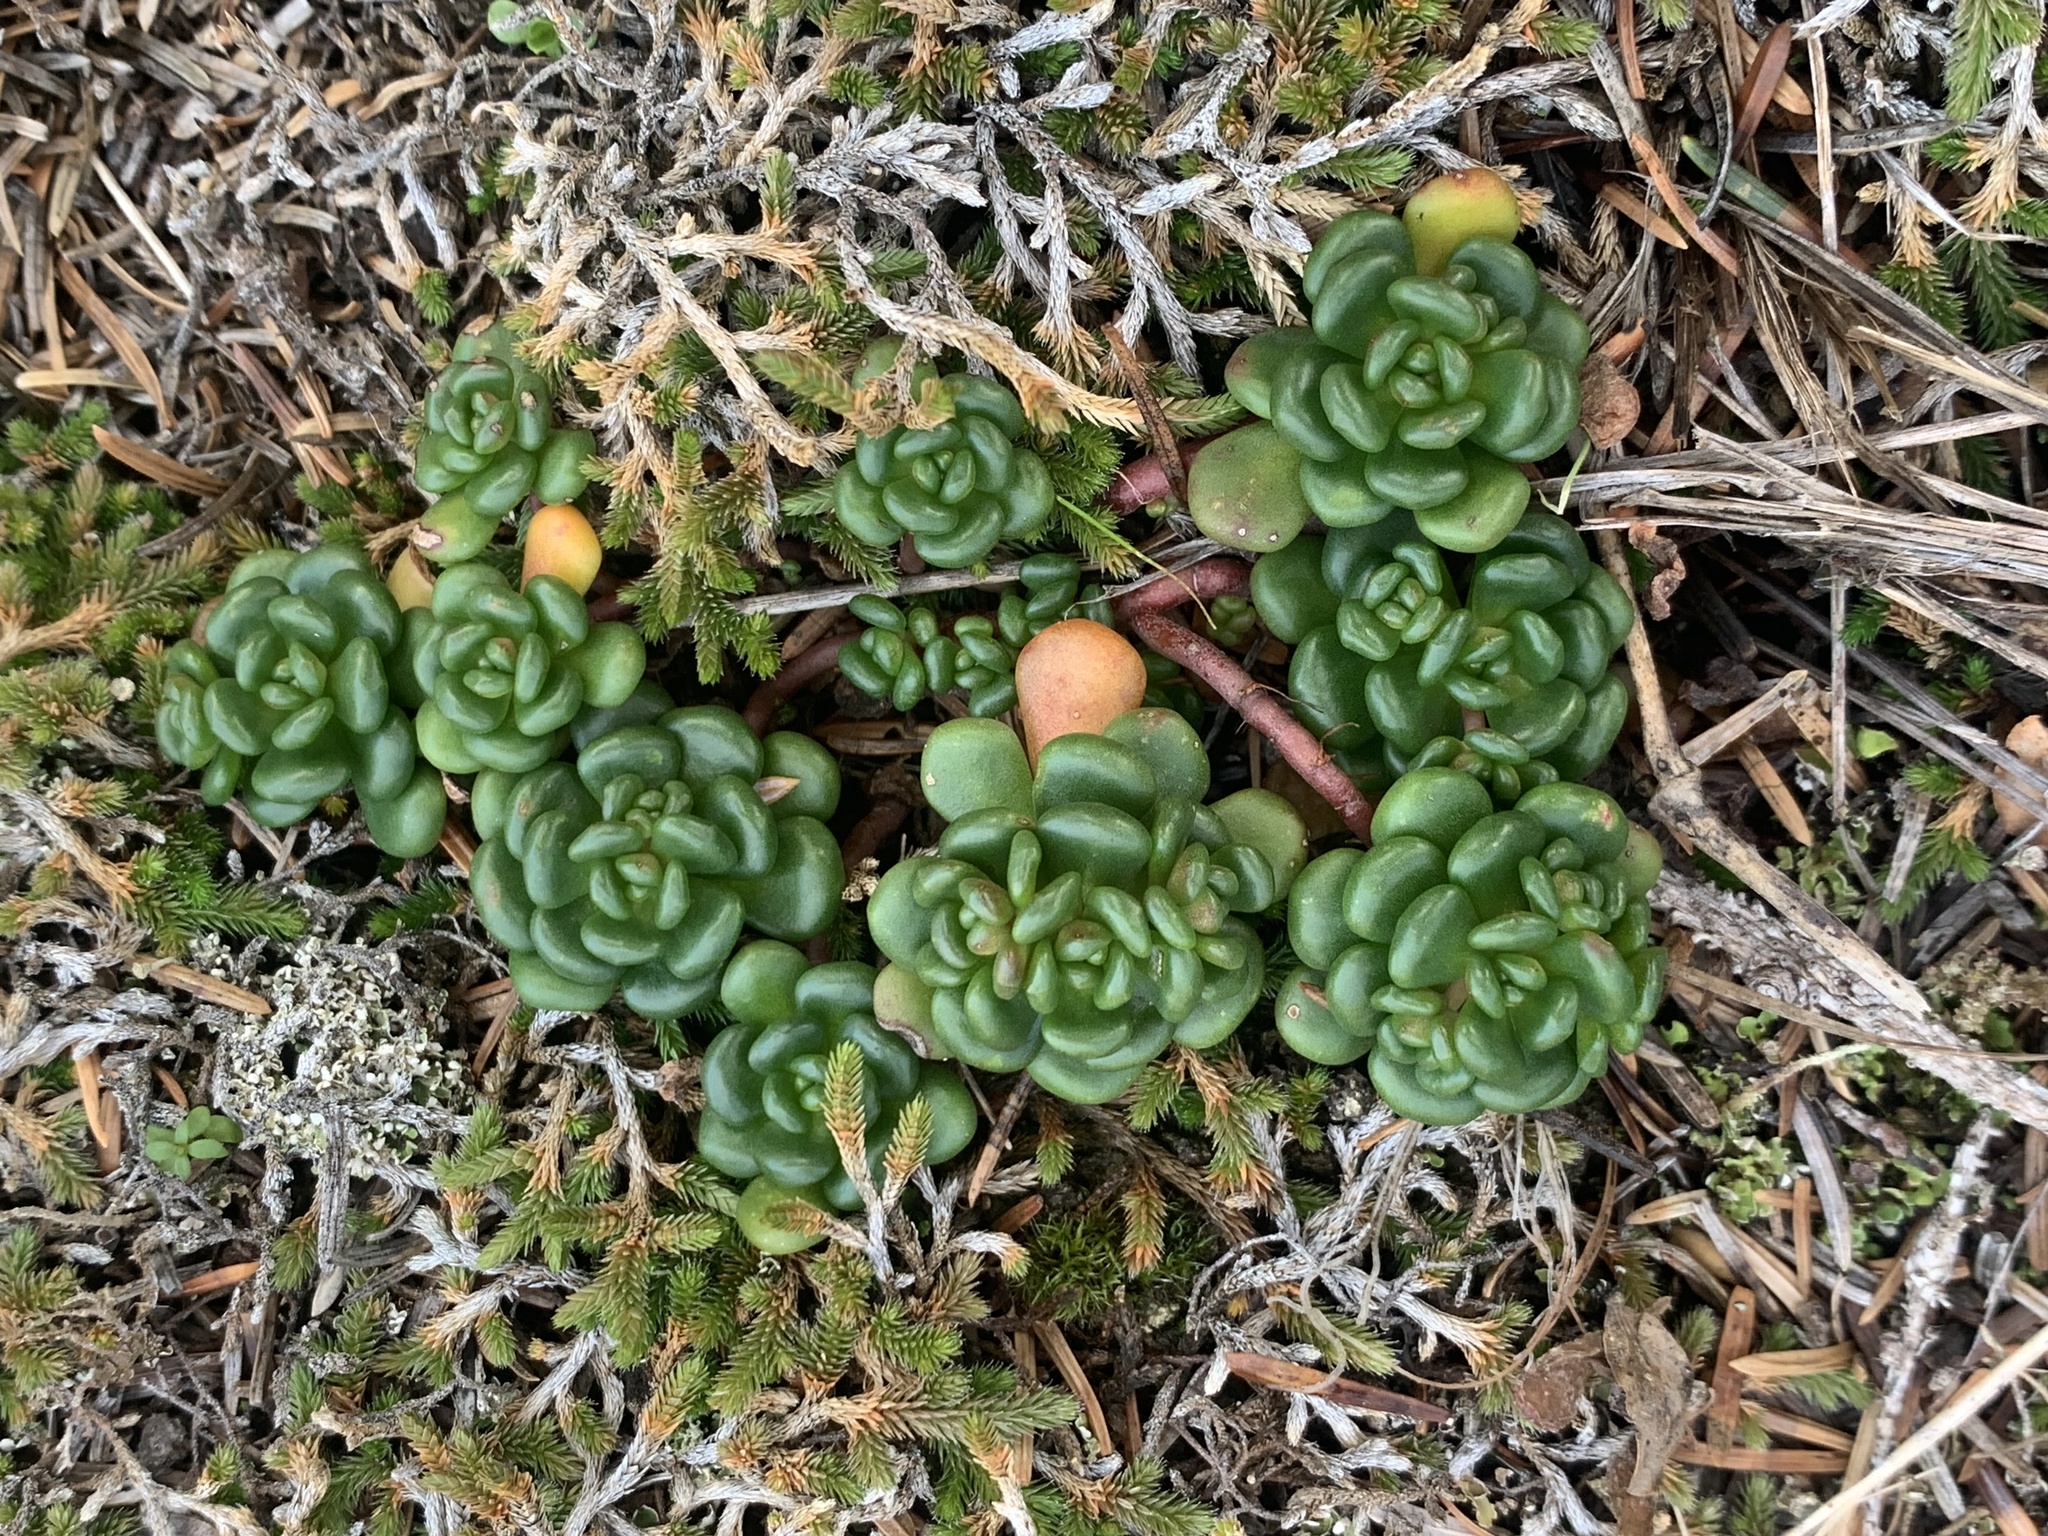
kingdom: Plantae
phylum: Tracheophyta
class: Magnoliopsida
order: Saxifragales
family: Crassulaceae
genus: Sedum
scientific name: Sedum oreganum
